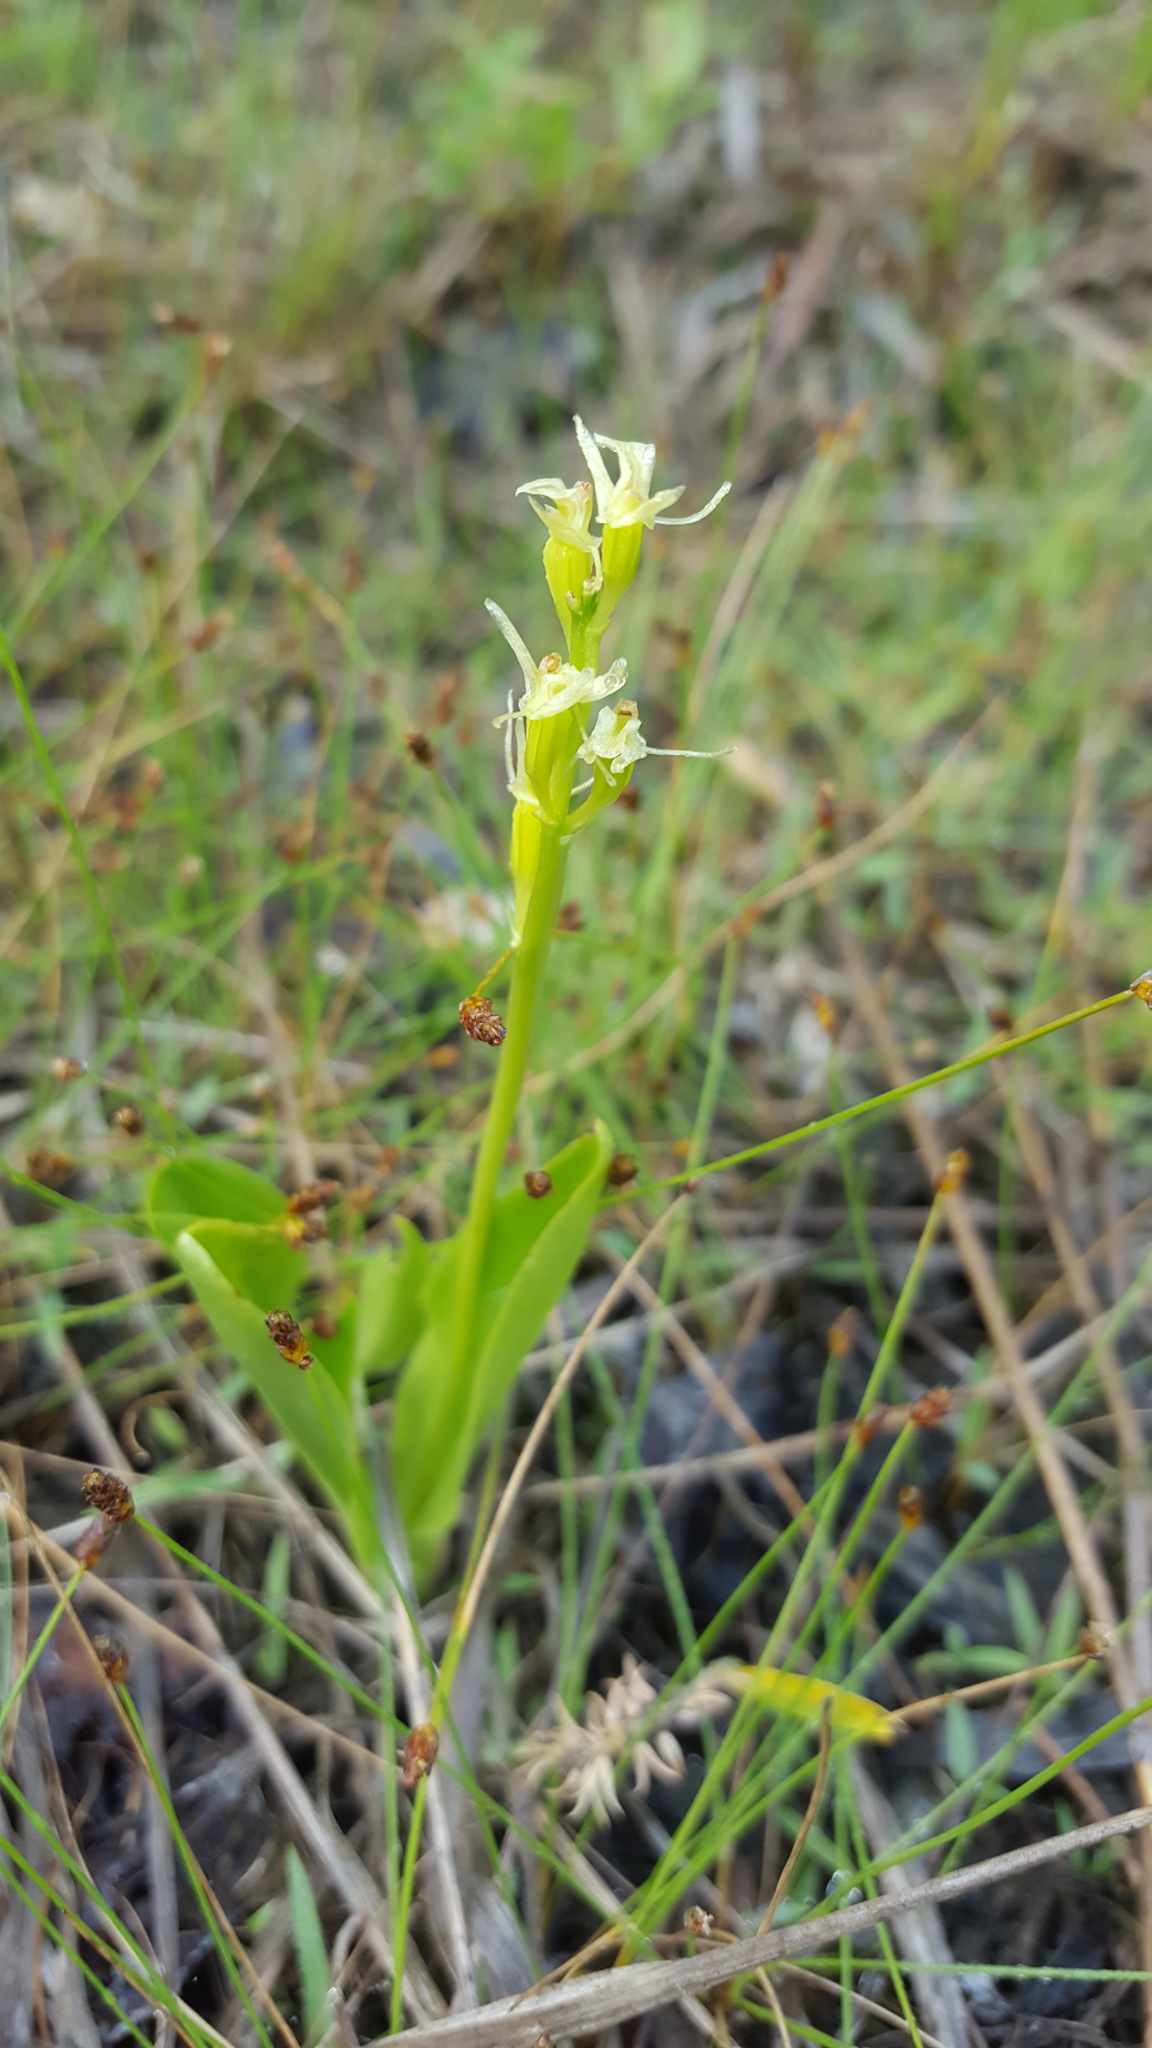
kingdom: Animalia
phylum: Arthropoda
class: Insecta
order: Coleoptera
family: Curculionidae
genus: Liparis
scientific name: Liparis loeselii
